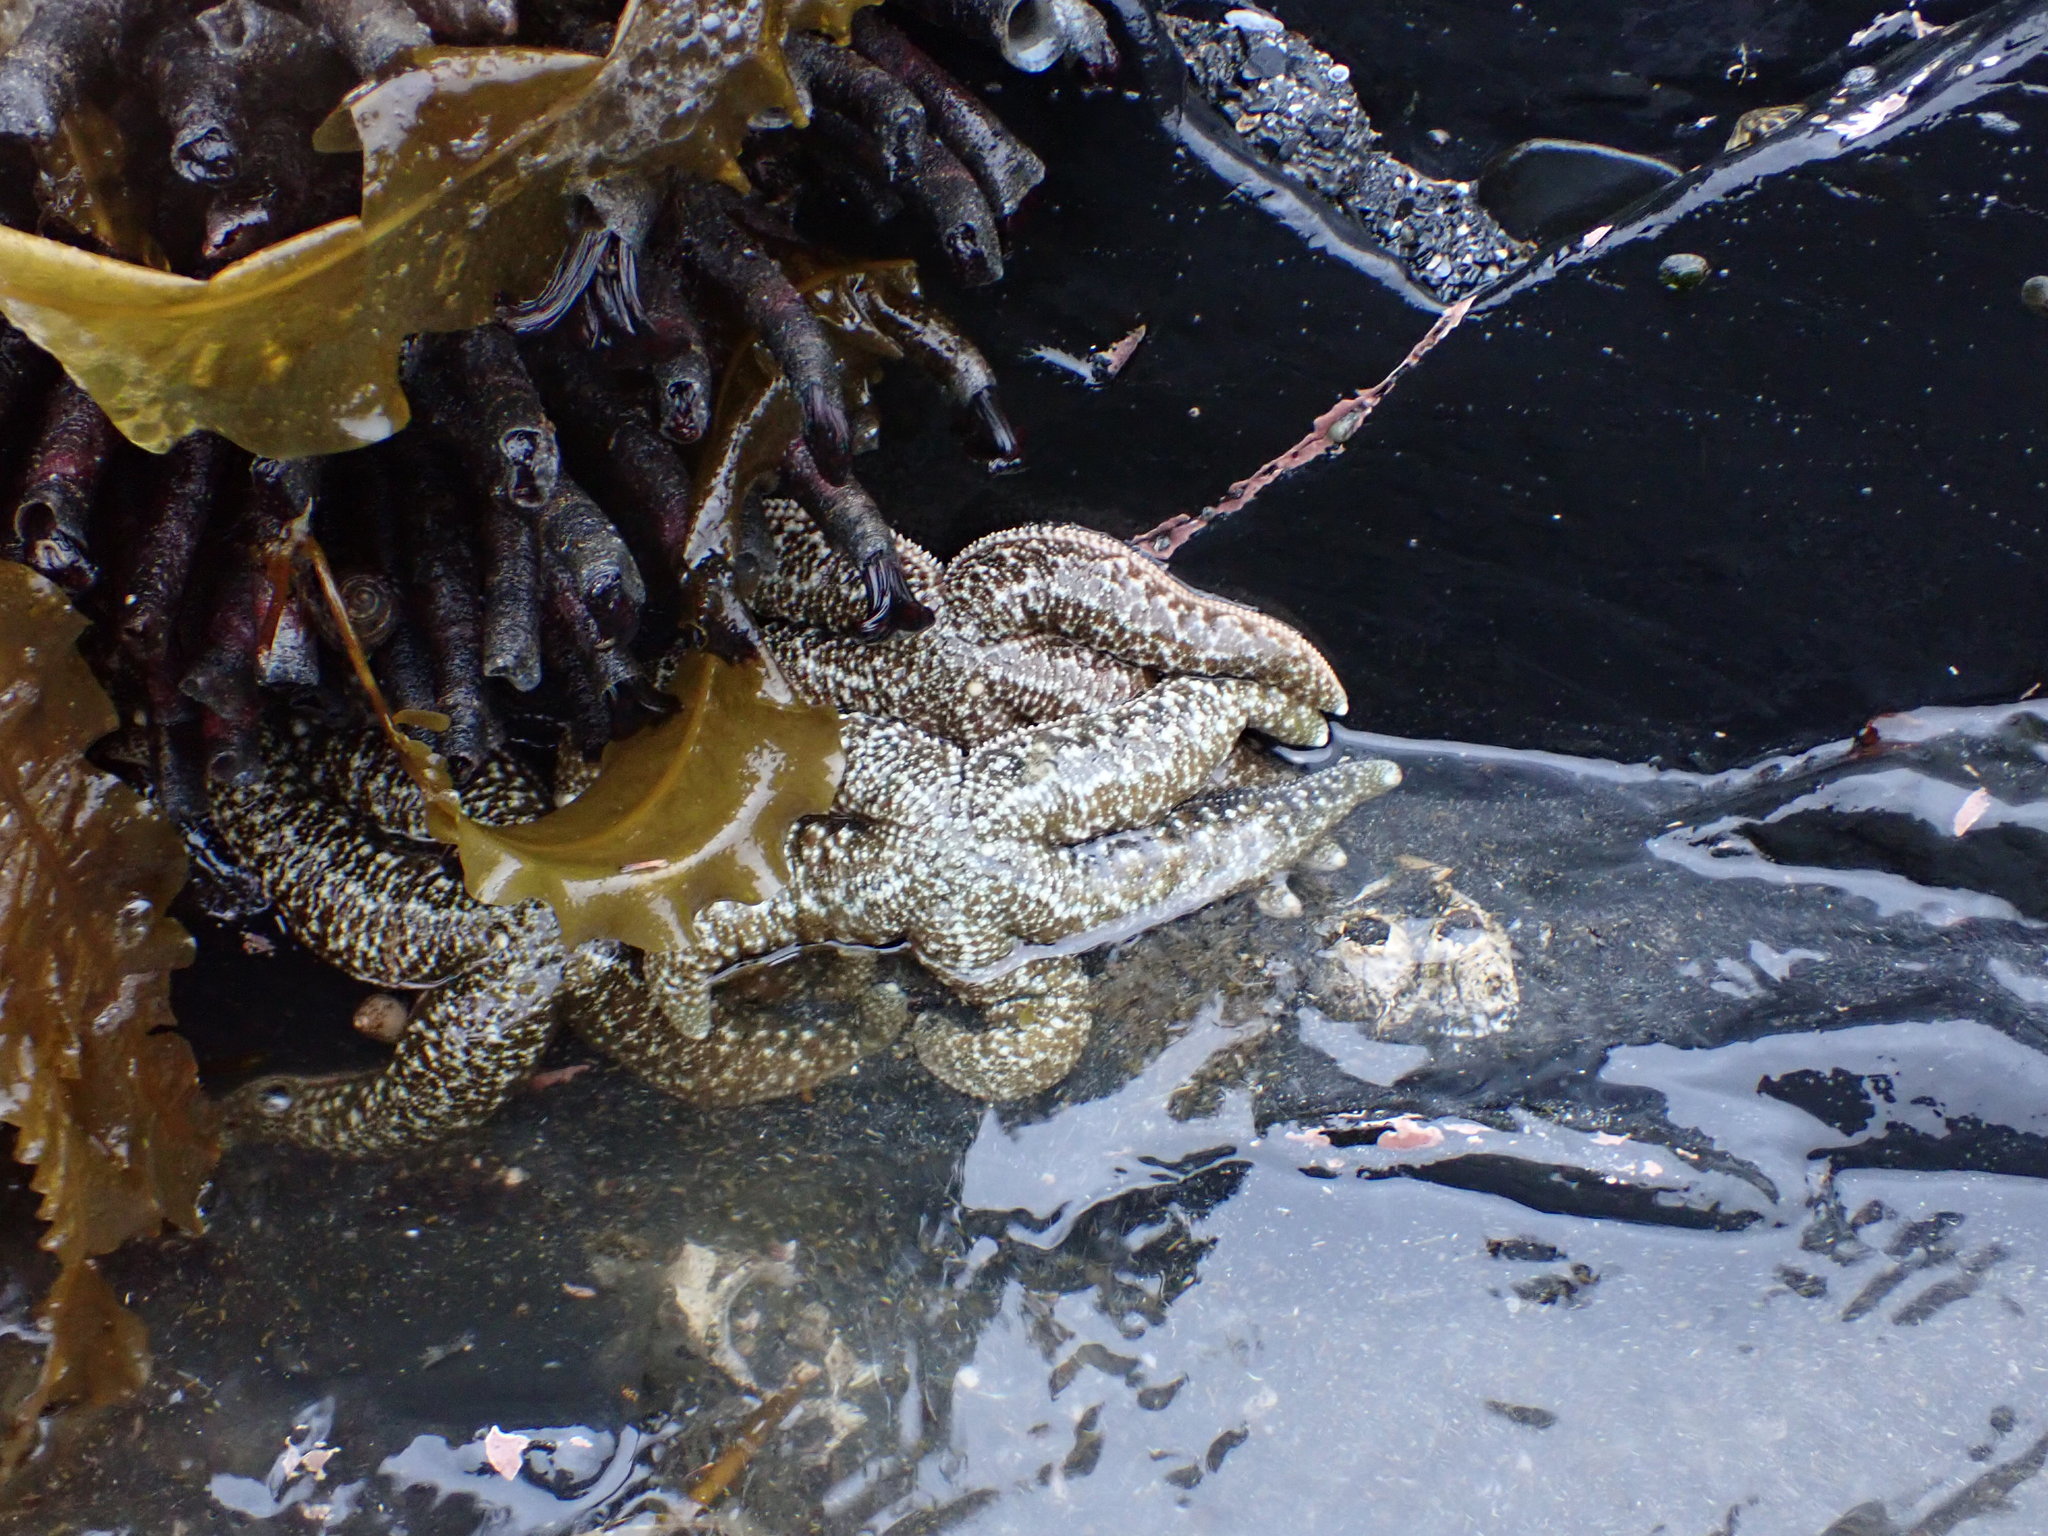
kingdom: Animalia
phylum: Echinodermata
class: Asteroidea
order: Forcipulatida
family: Asteriidae
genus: Evasterias
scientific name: Evasterias troschelii
